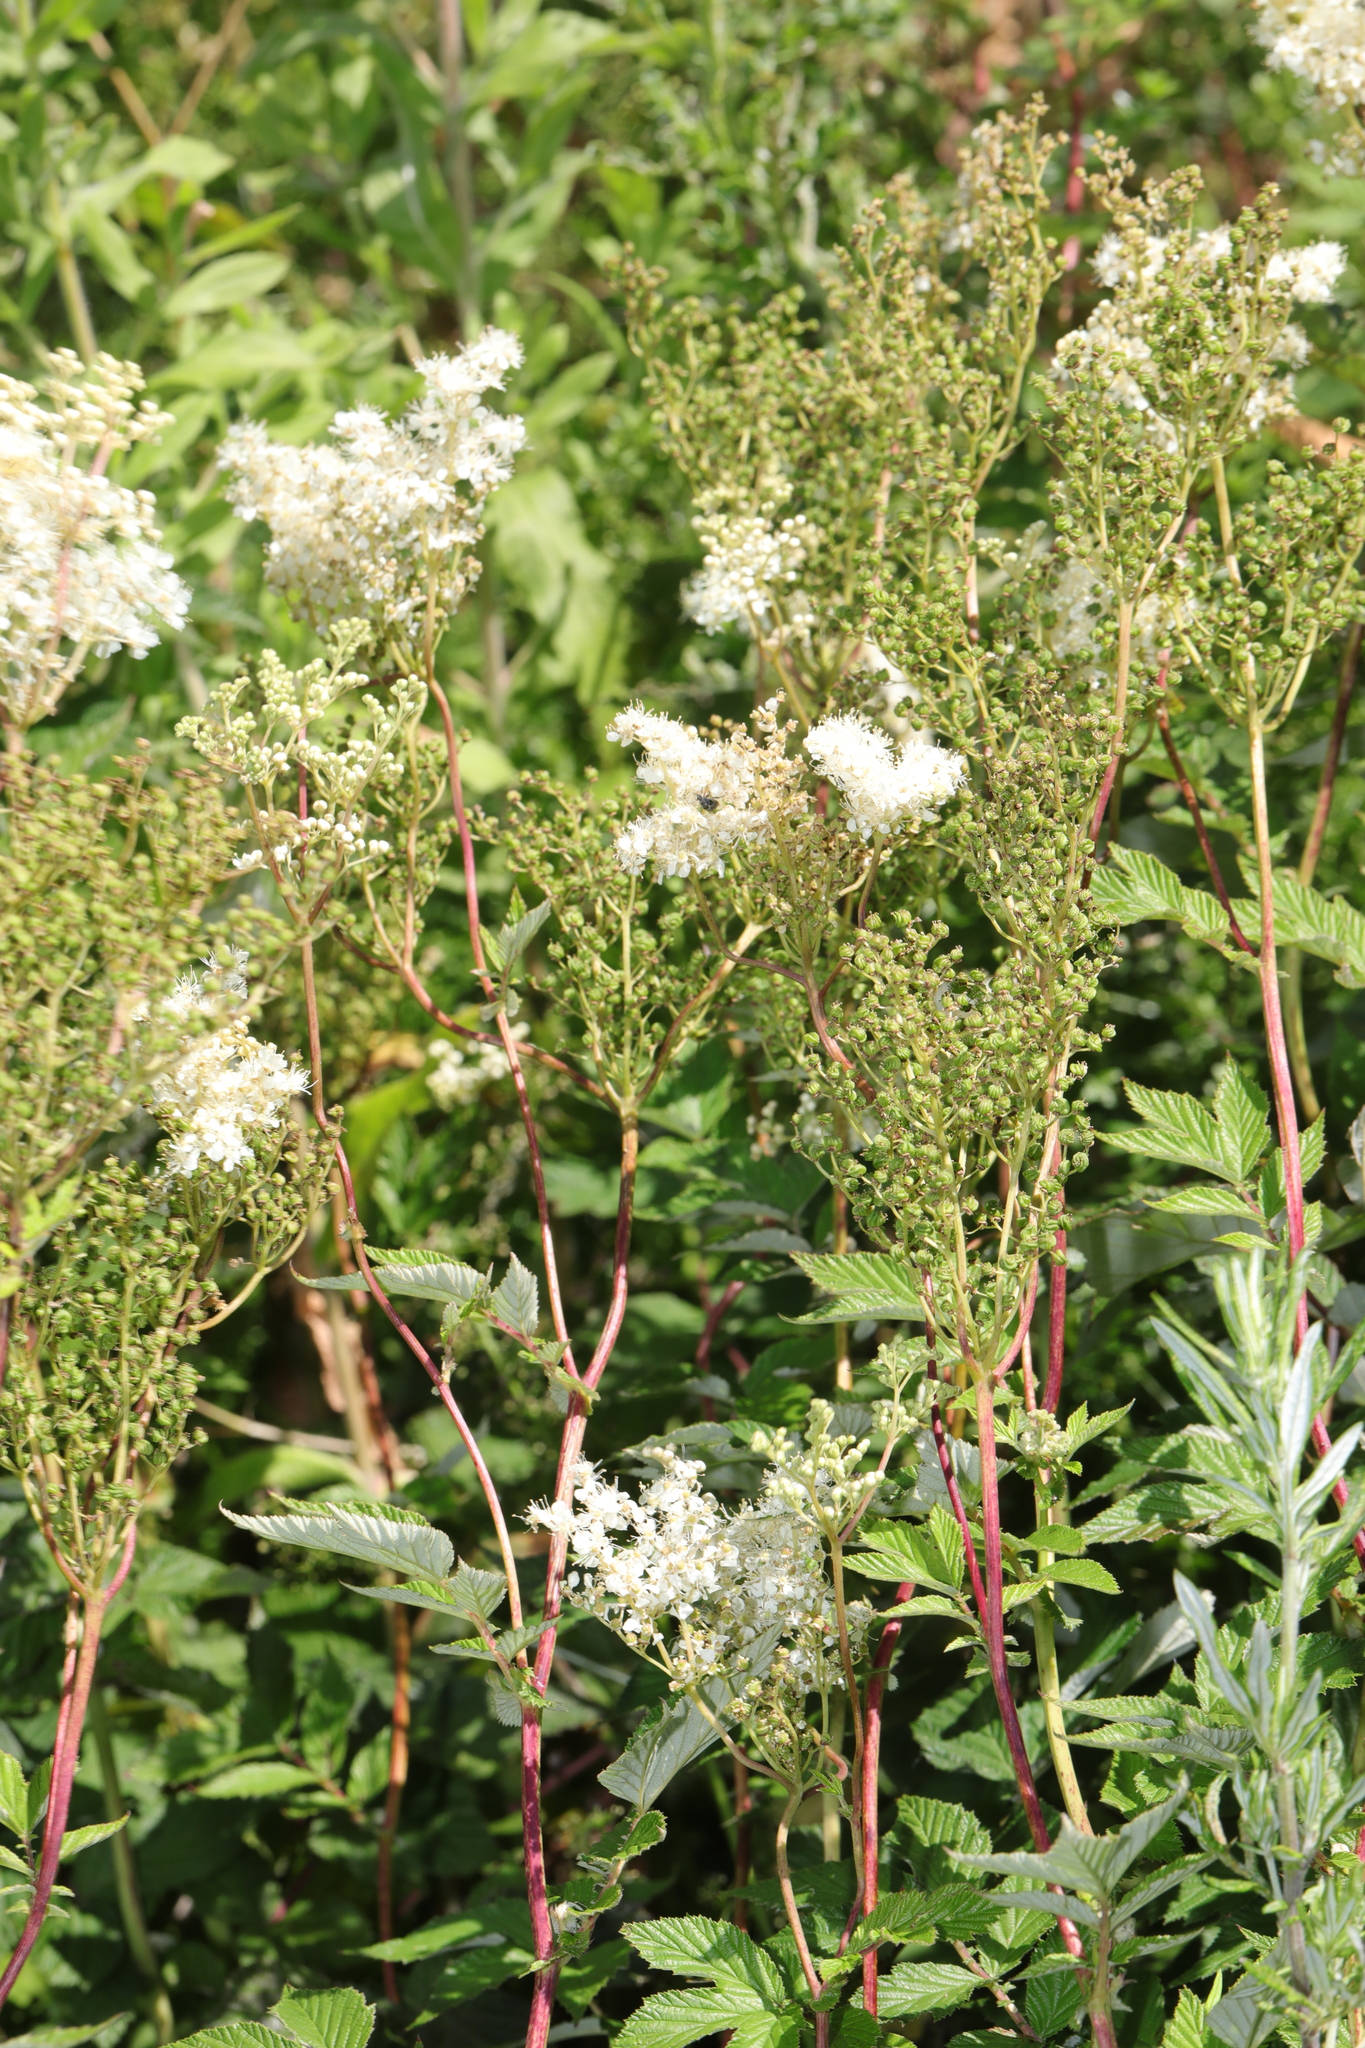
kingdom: Plantae
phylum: Tracheophyta
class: Magnoliopsida
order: Rosales
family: Rosaceae
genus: Filipendula
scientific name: Filipendula ulmaria
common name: Meadowsweet
